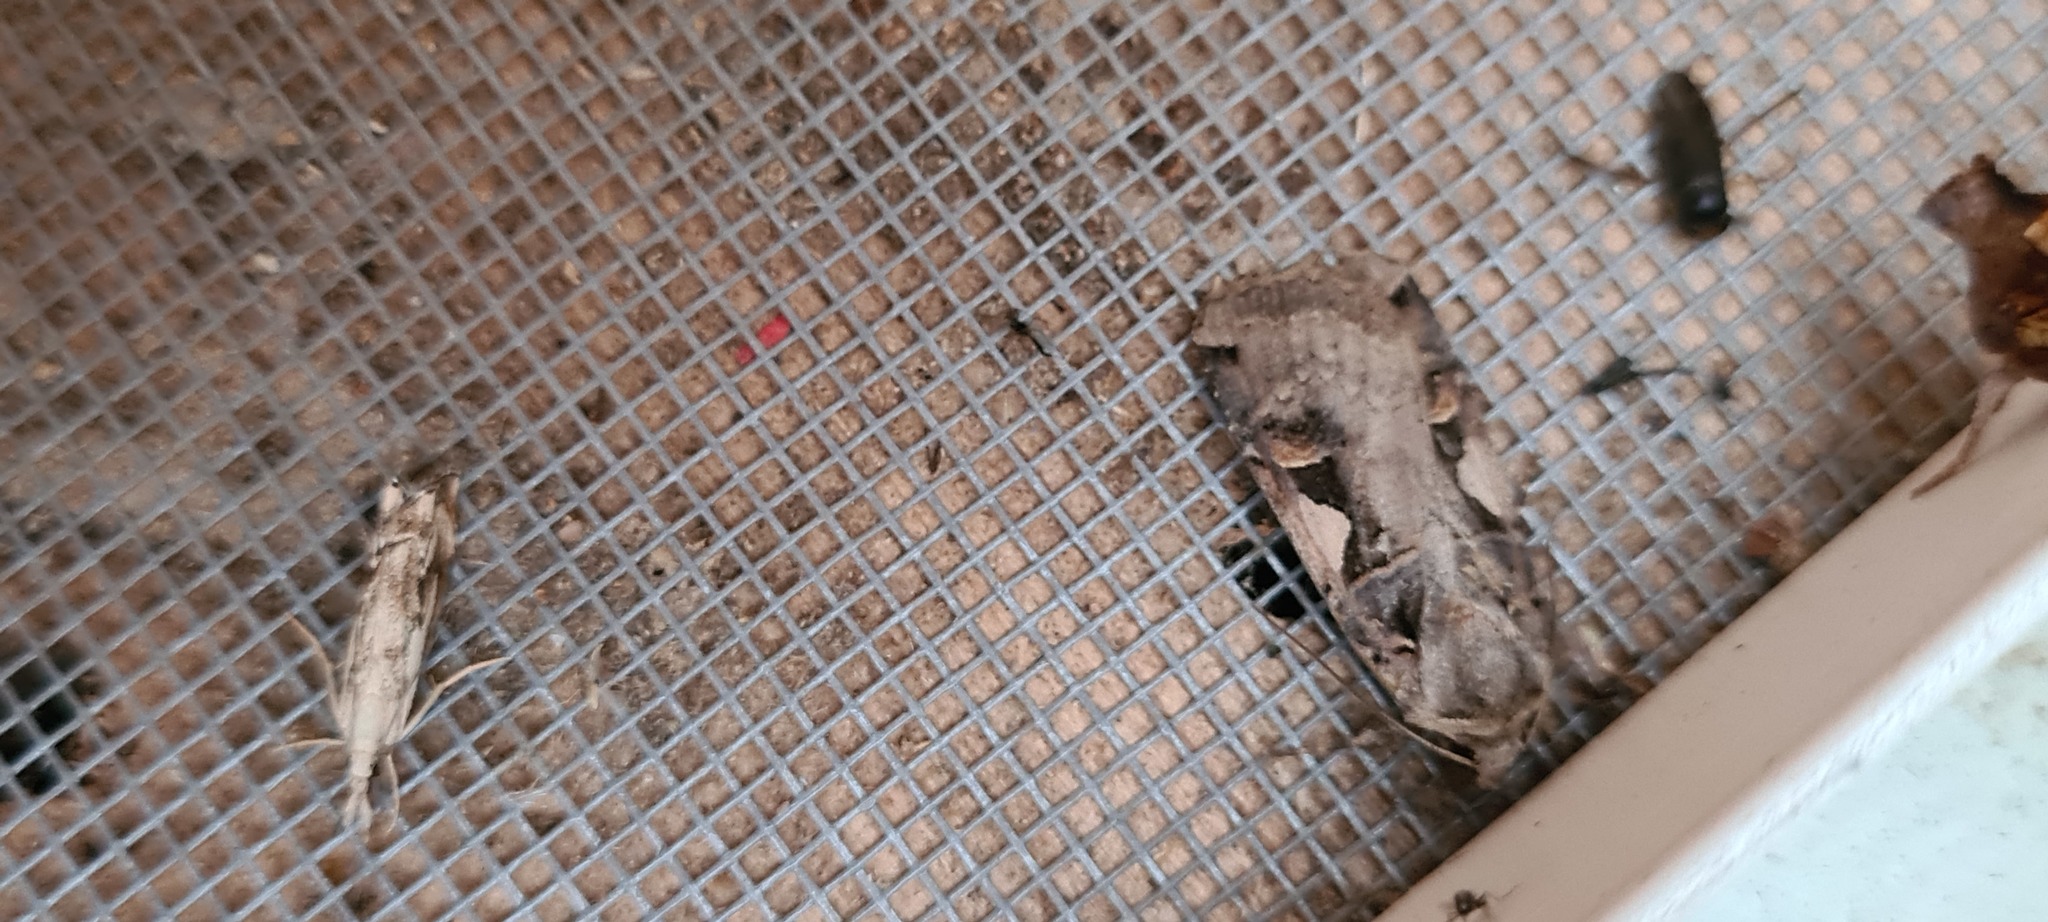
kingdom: Animalia
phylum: Arthropoda
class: Insecta
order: Lepidoptera
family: Noctuidae
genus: Xestia
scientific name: Xestia c-nigrum
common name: Setaceous hebrew character
